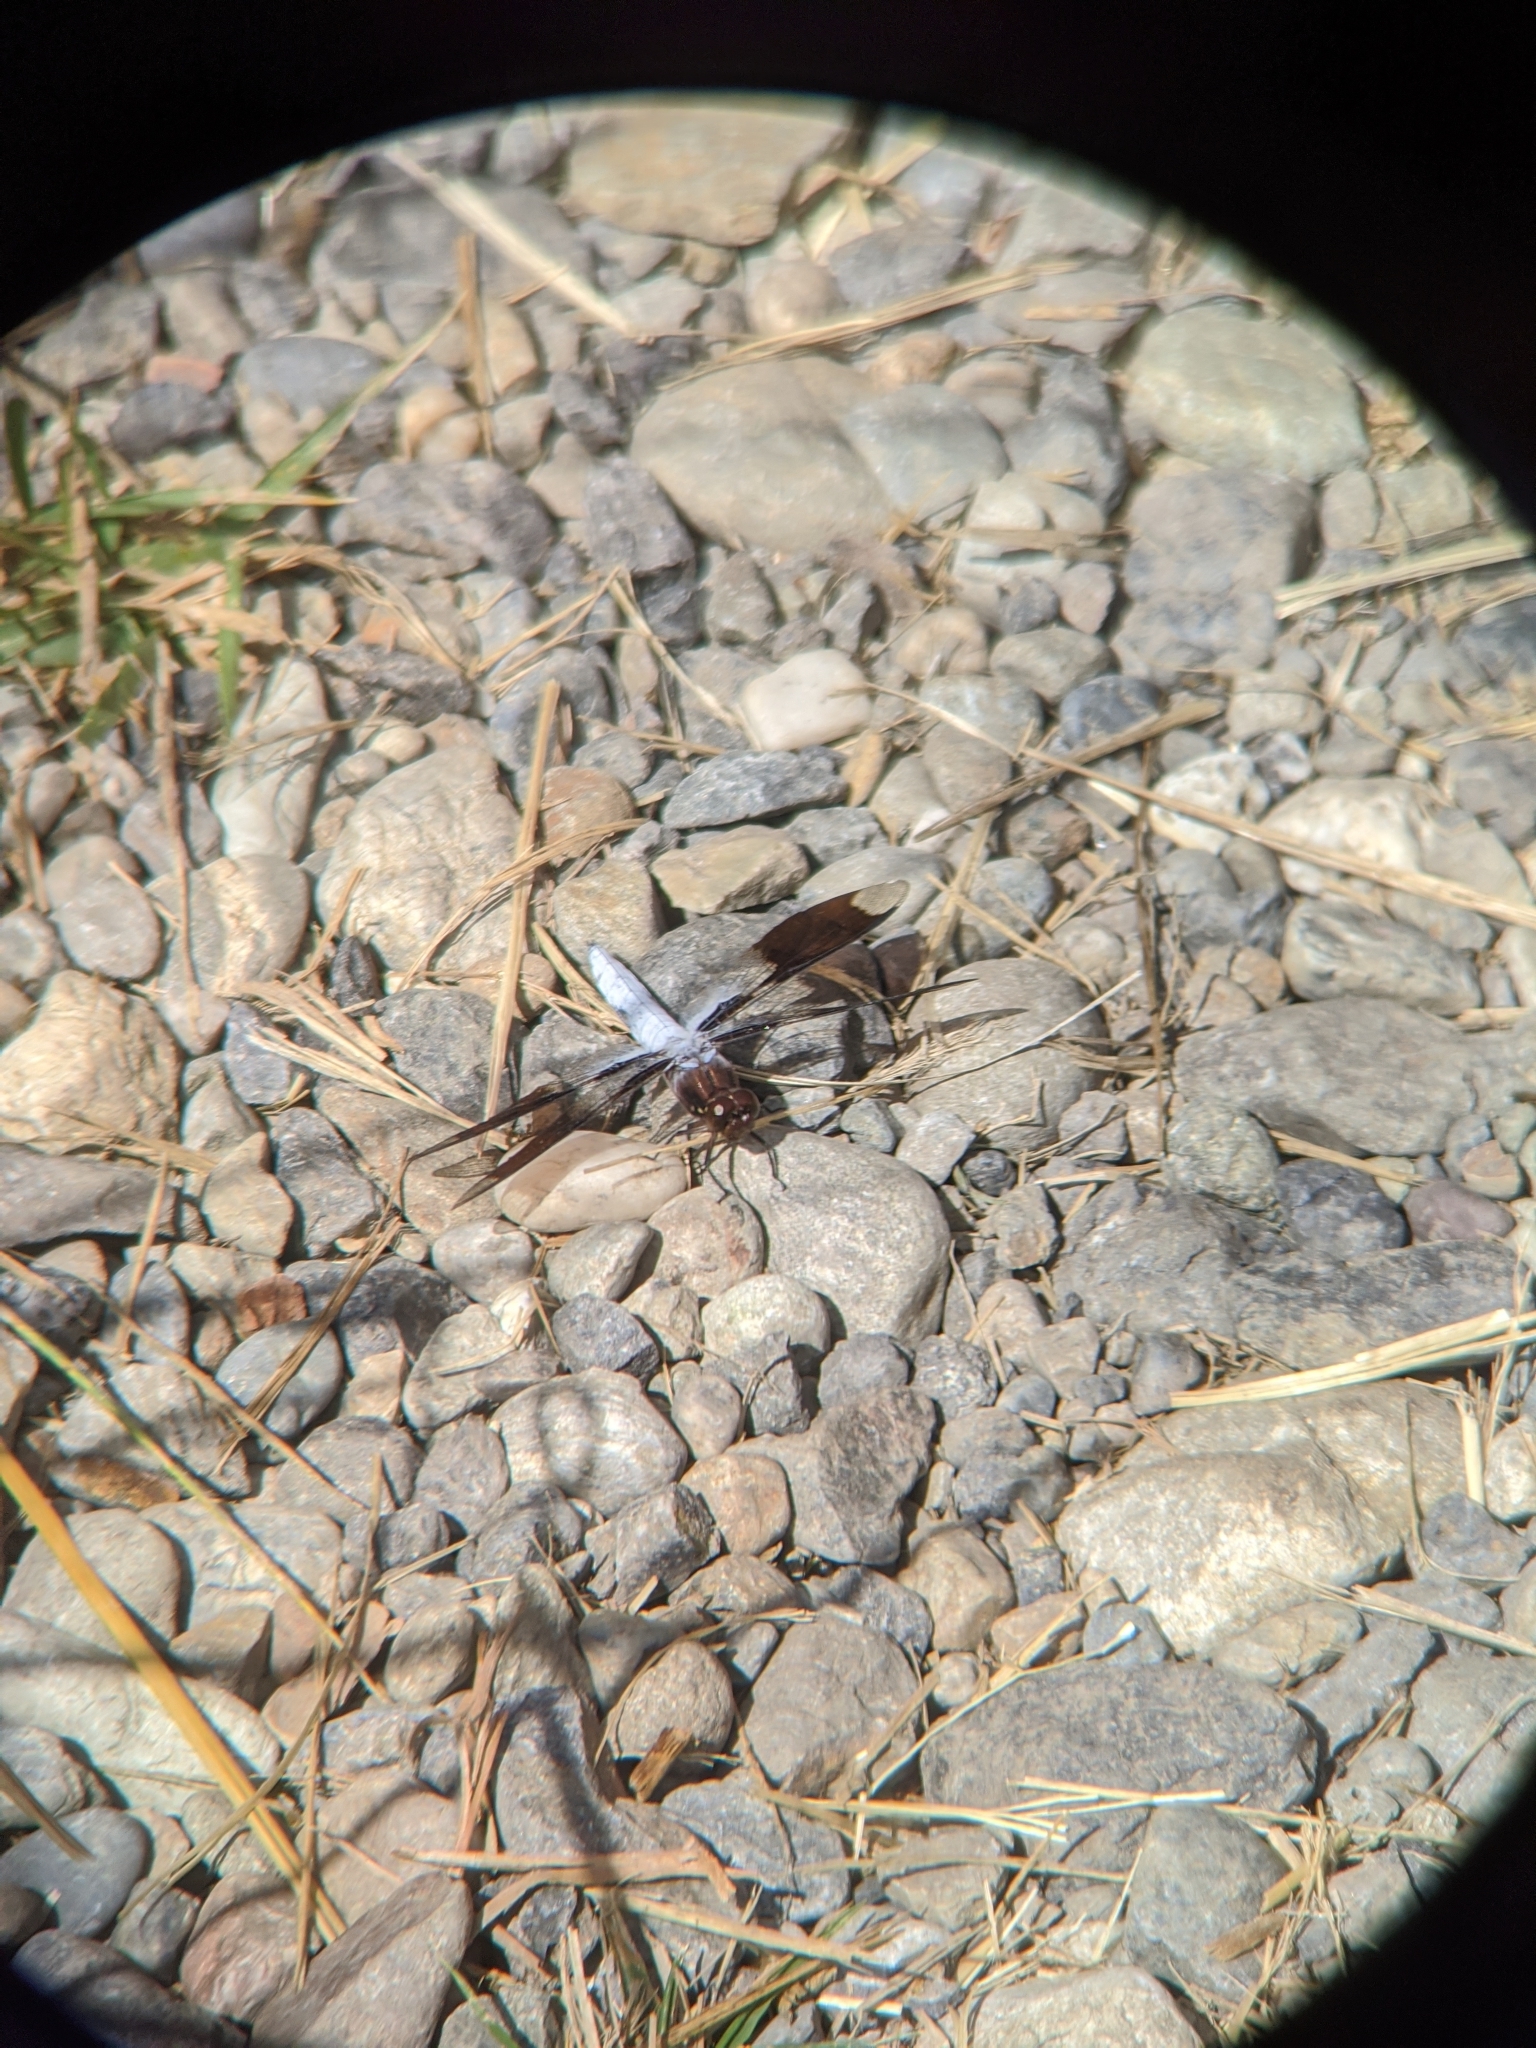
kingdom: Animalia
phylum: Arthropoda
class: Insecta
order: Odonata
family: Libellulidae
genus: Plathemis
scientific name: Plathemis lydia
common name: Common whitetail
